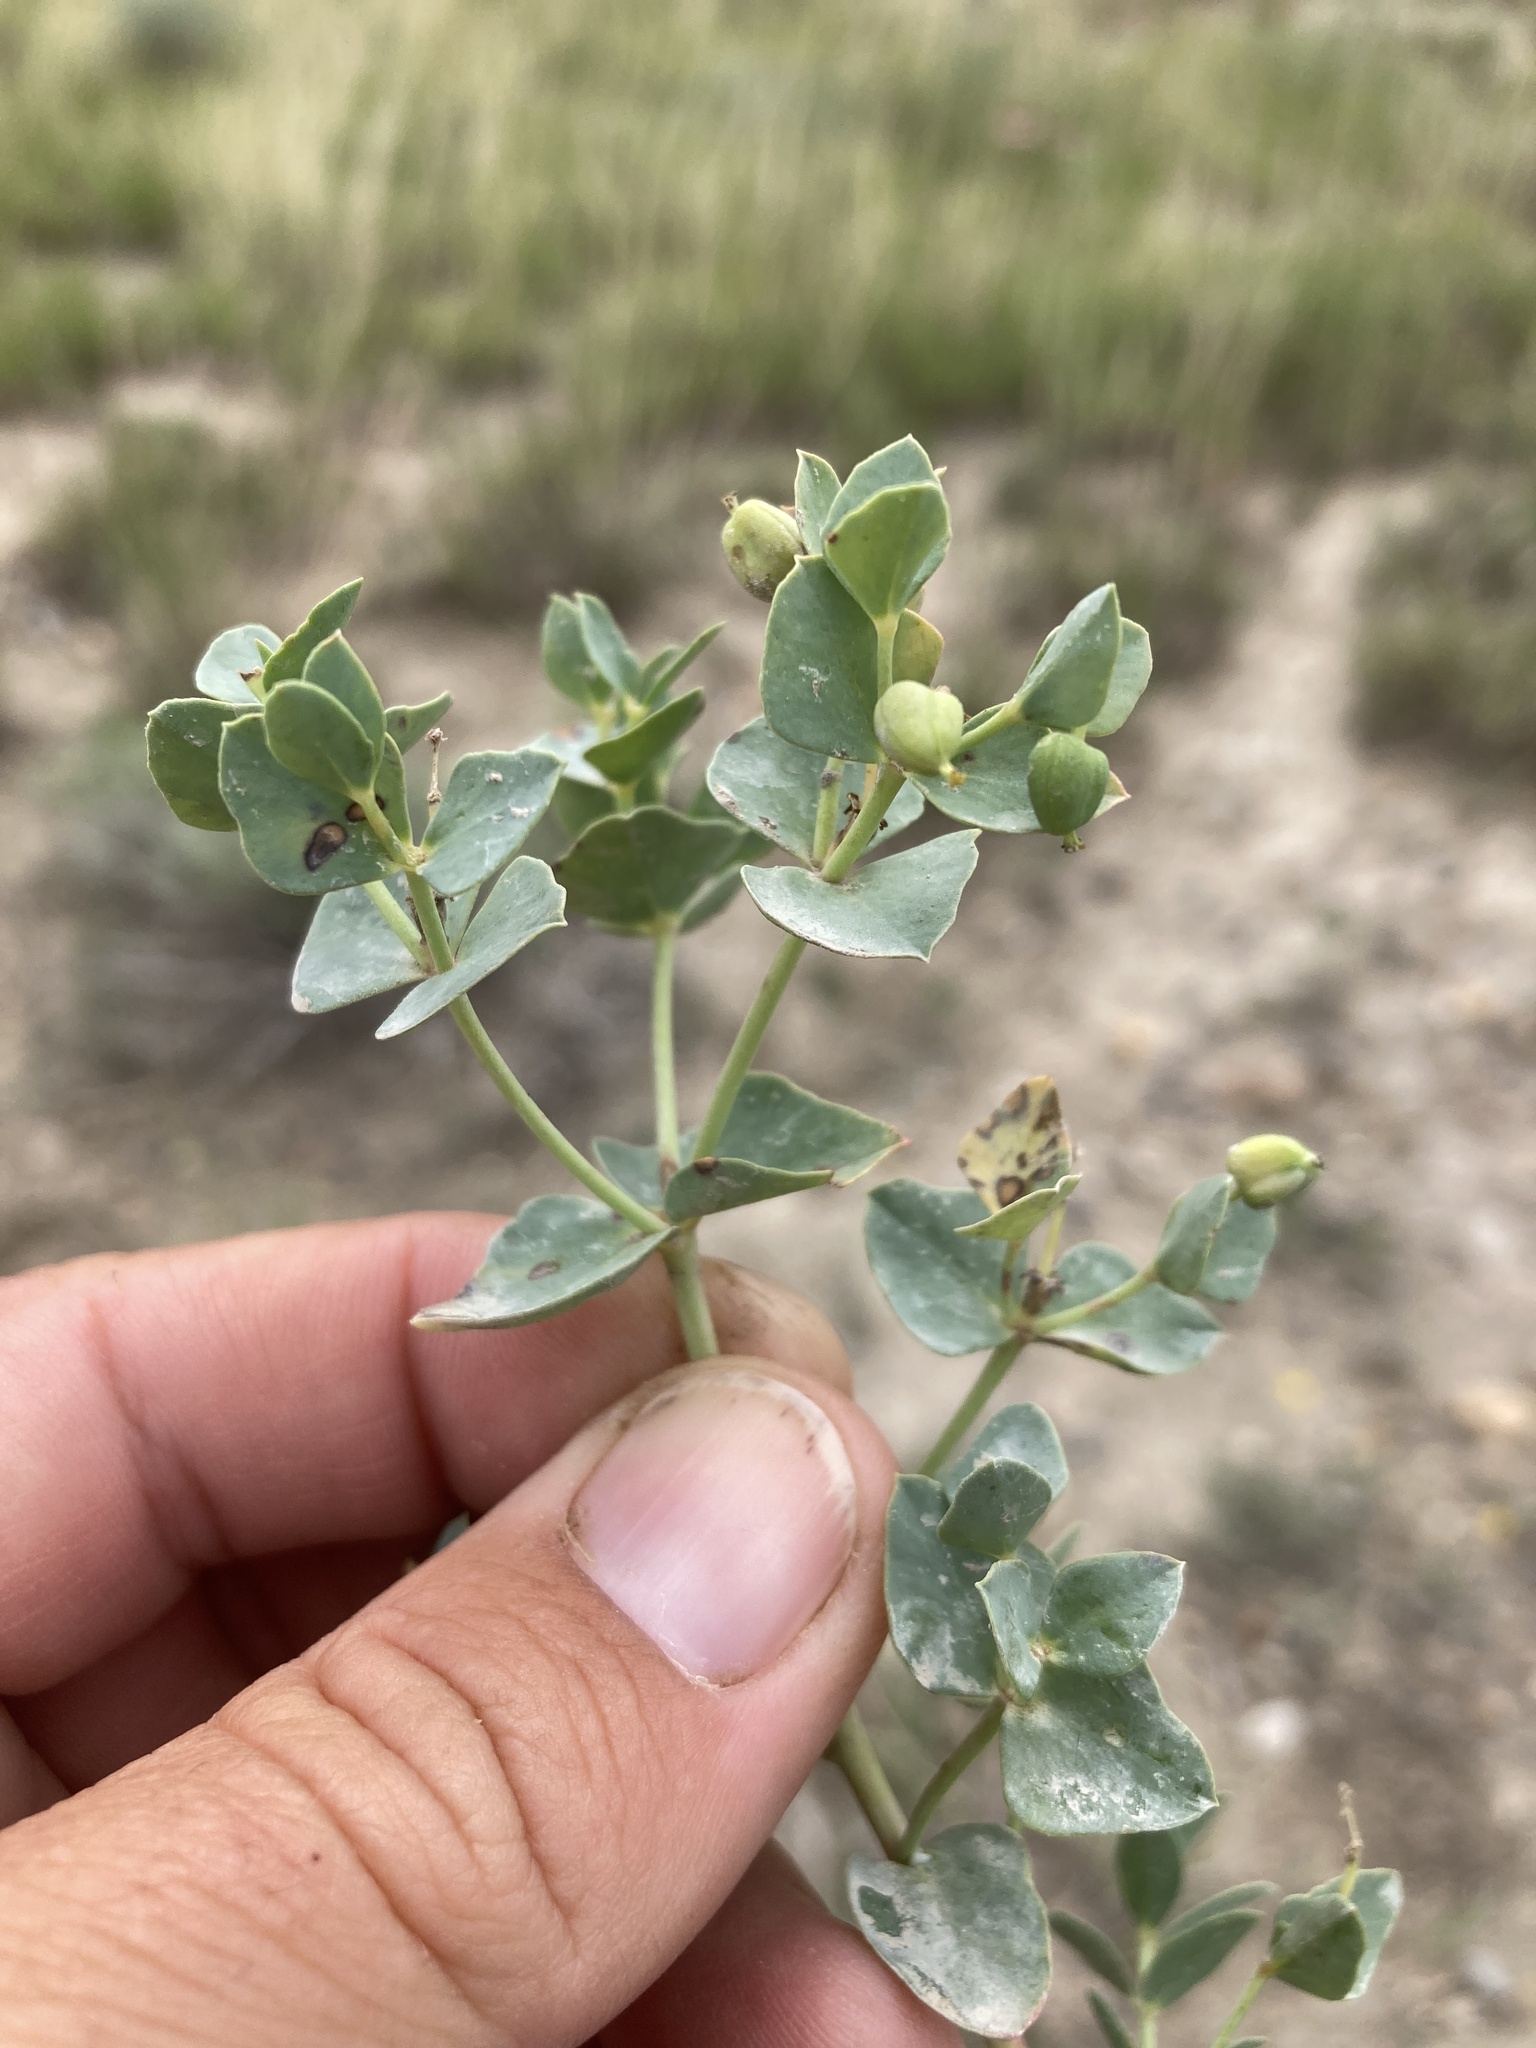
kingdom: Plantae
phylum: Tracheophyta
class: Magnoliopsida
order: Malpighiales
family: Euphorbiaceae
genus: Euphorbia
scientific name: Euphorbia brachycera
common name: Shorthorn spurge
